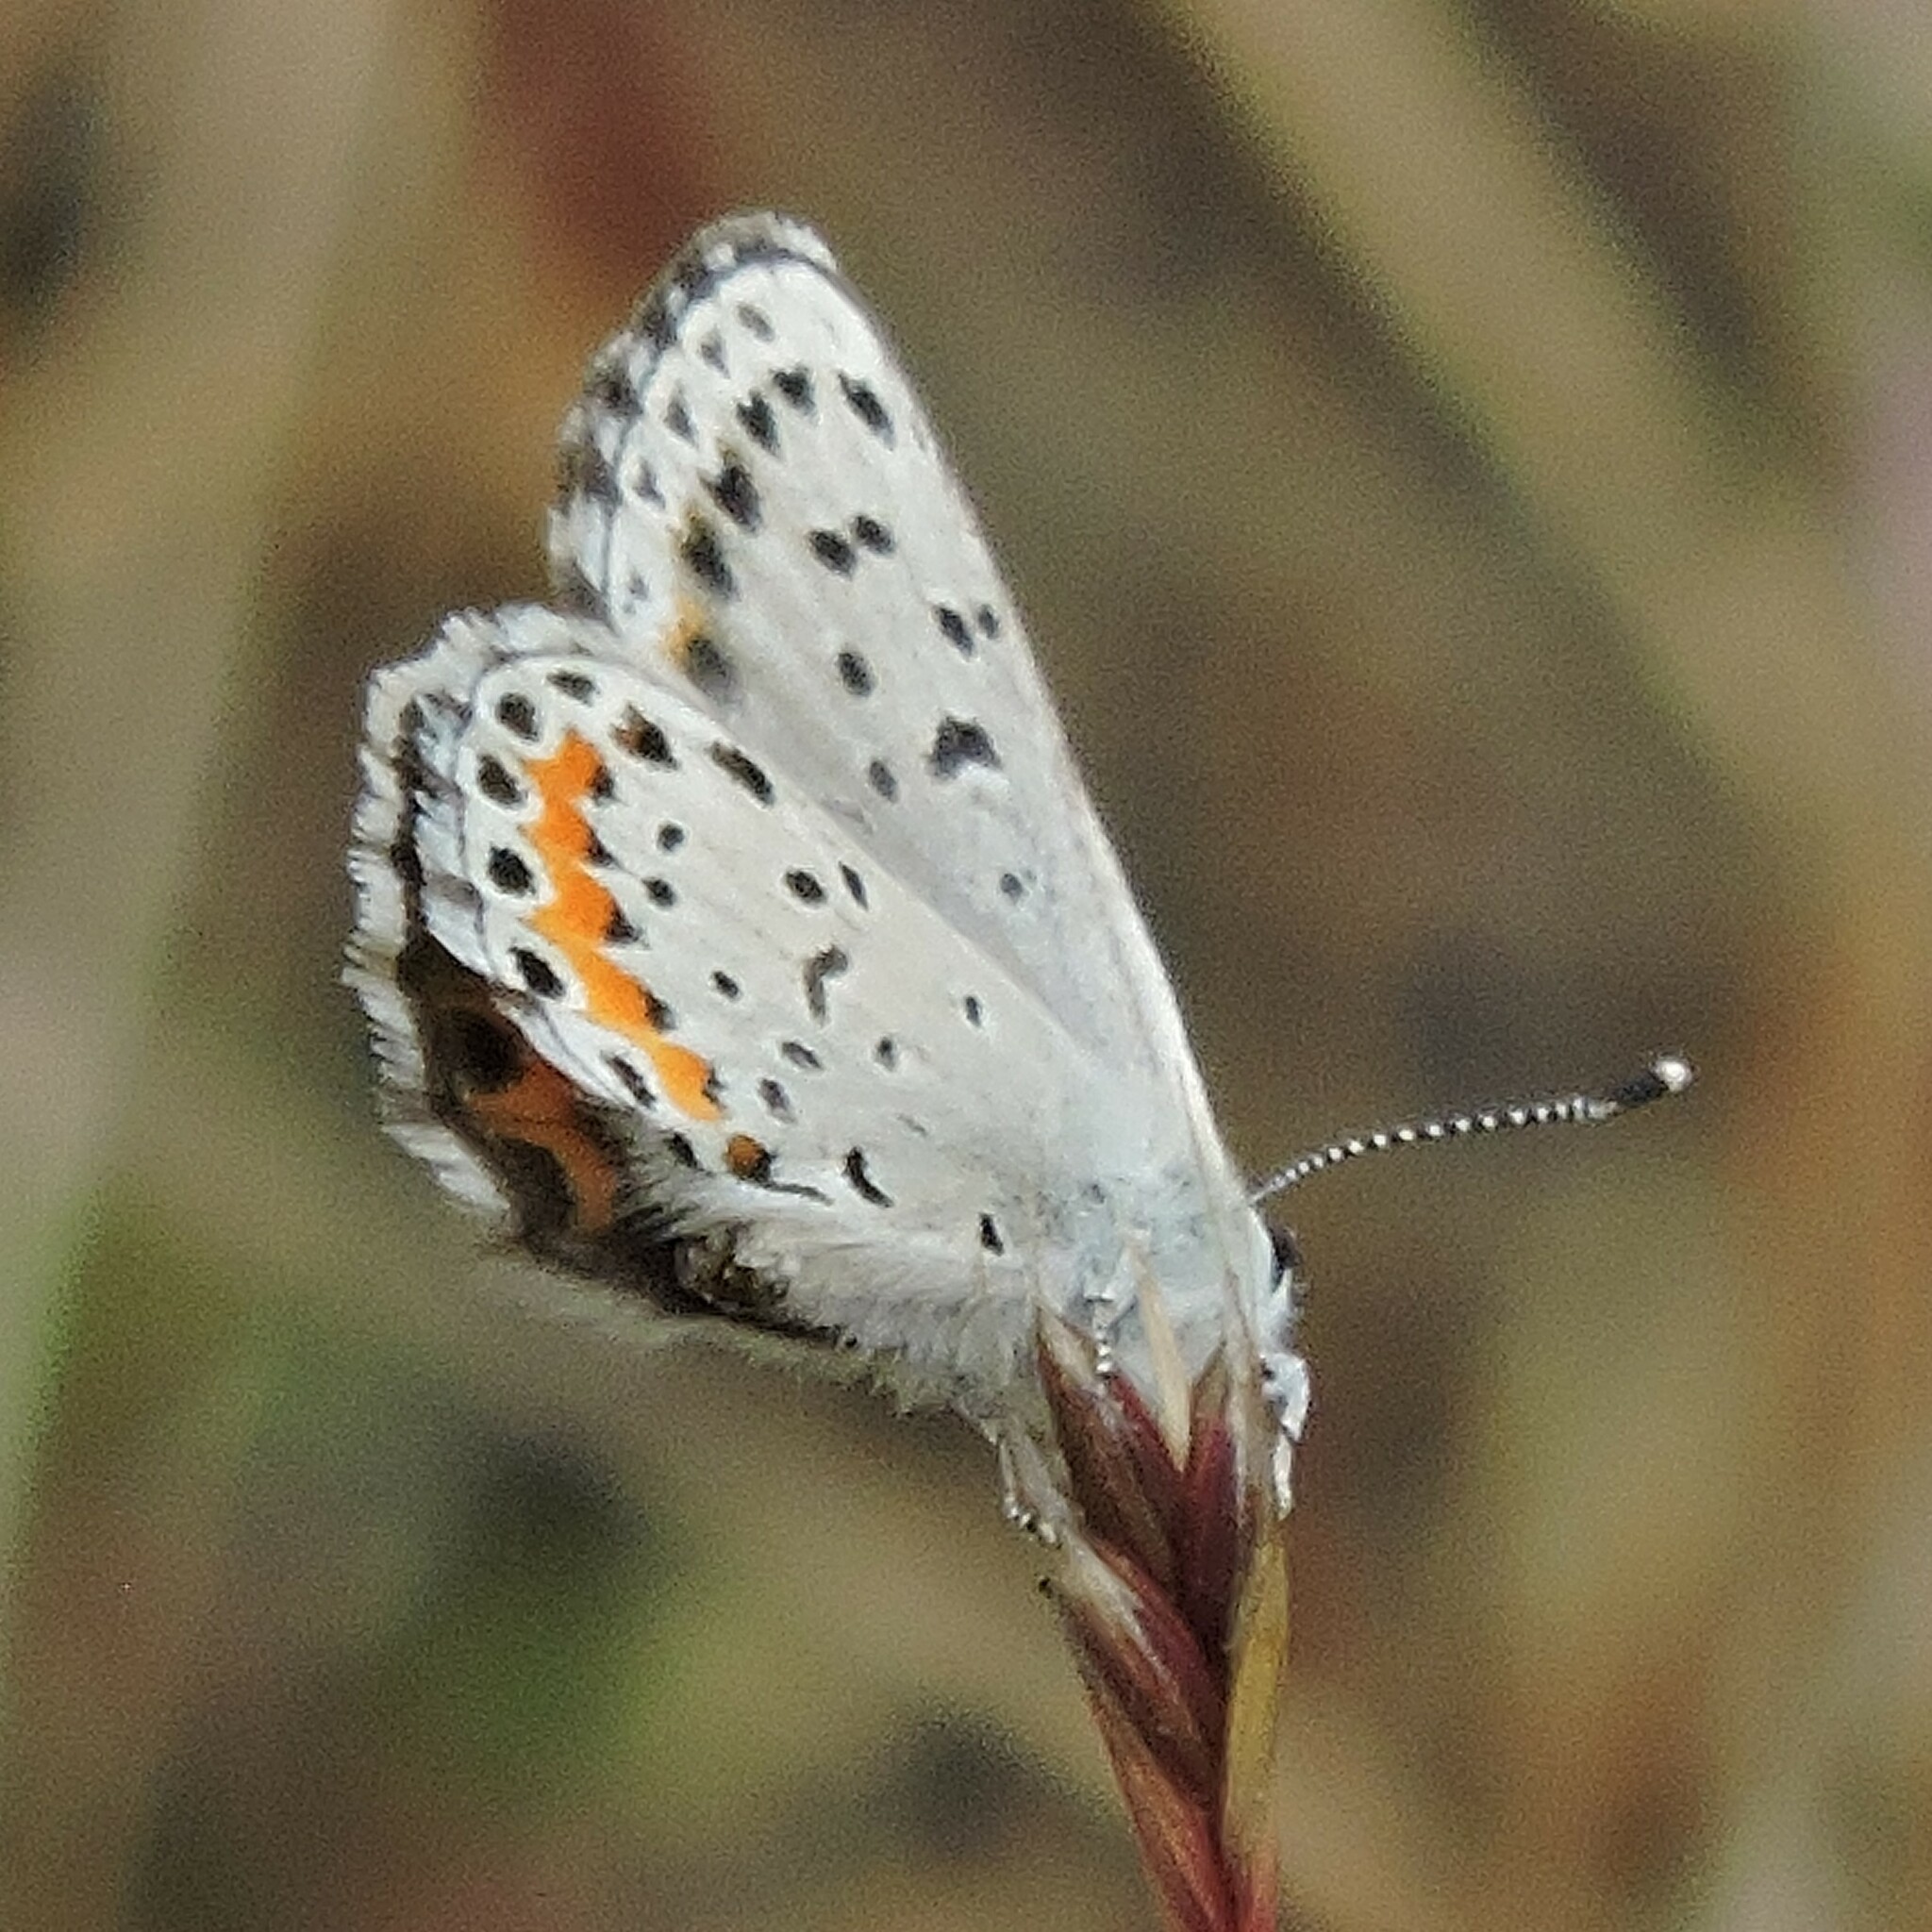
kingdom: Animalia
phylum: Arthropoda
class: Insecta
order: Lepidoptera
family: Lycaenidae
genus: Euphilotes
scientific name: Euphilotes enoptes
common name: Dotted blue
